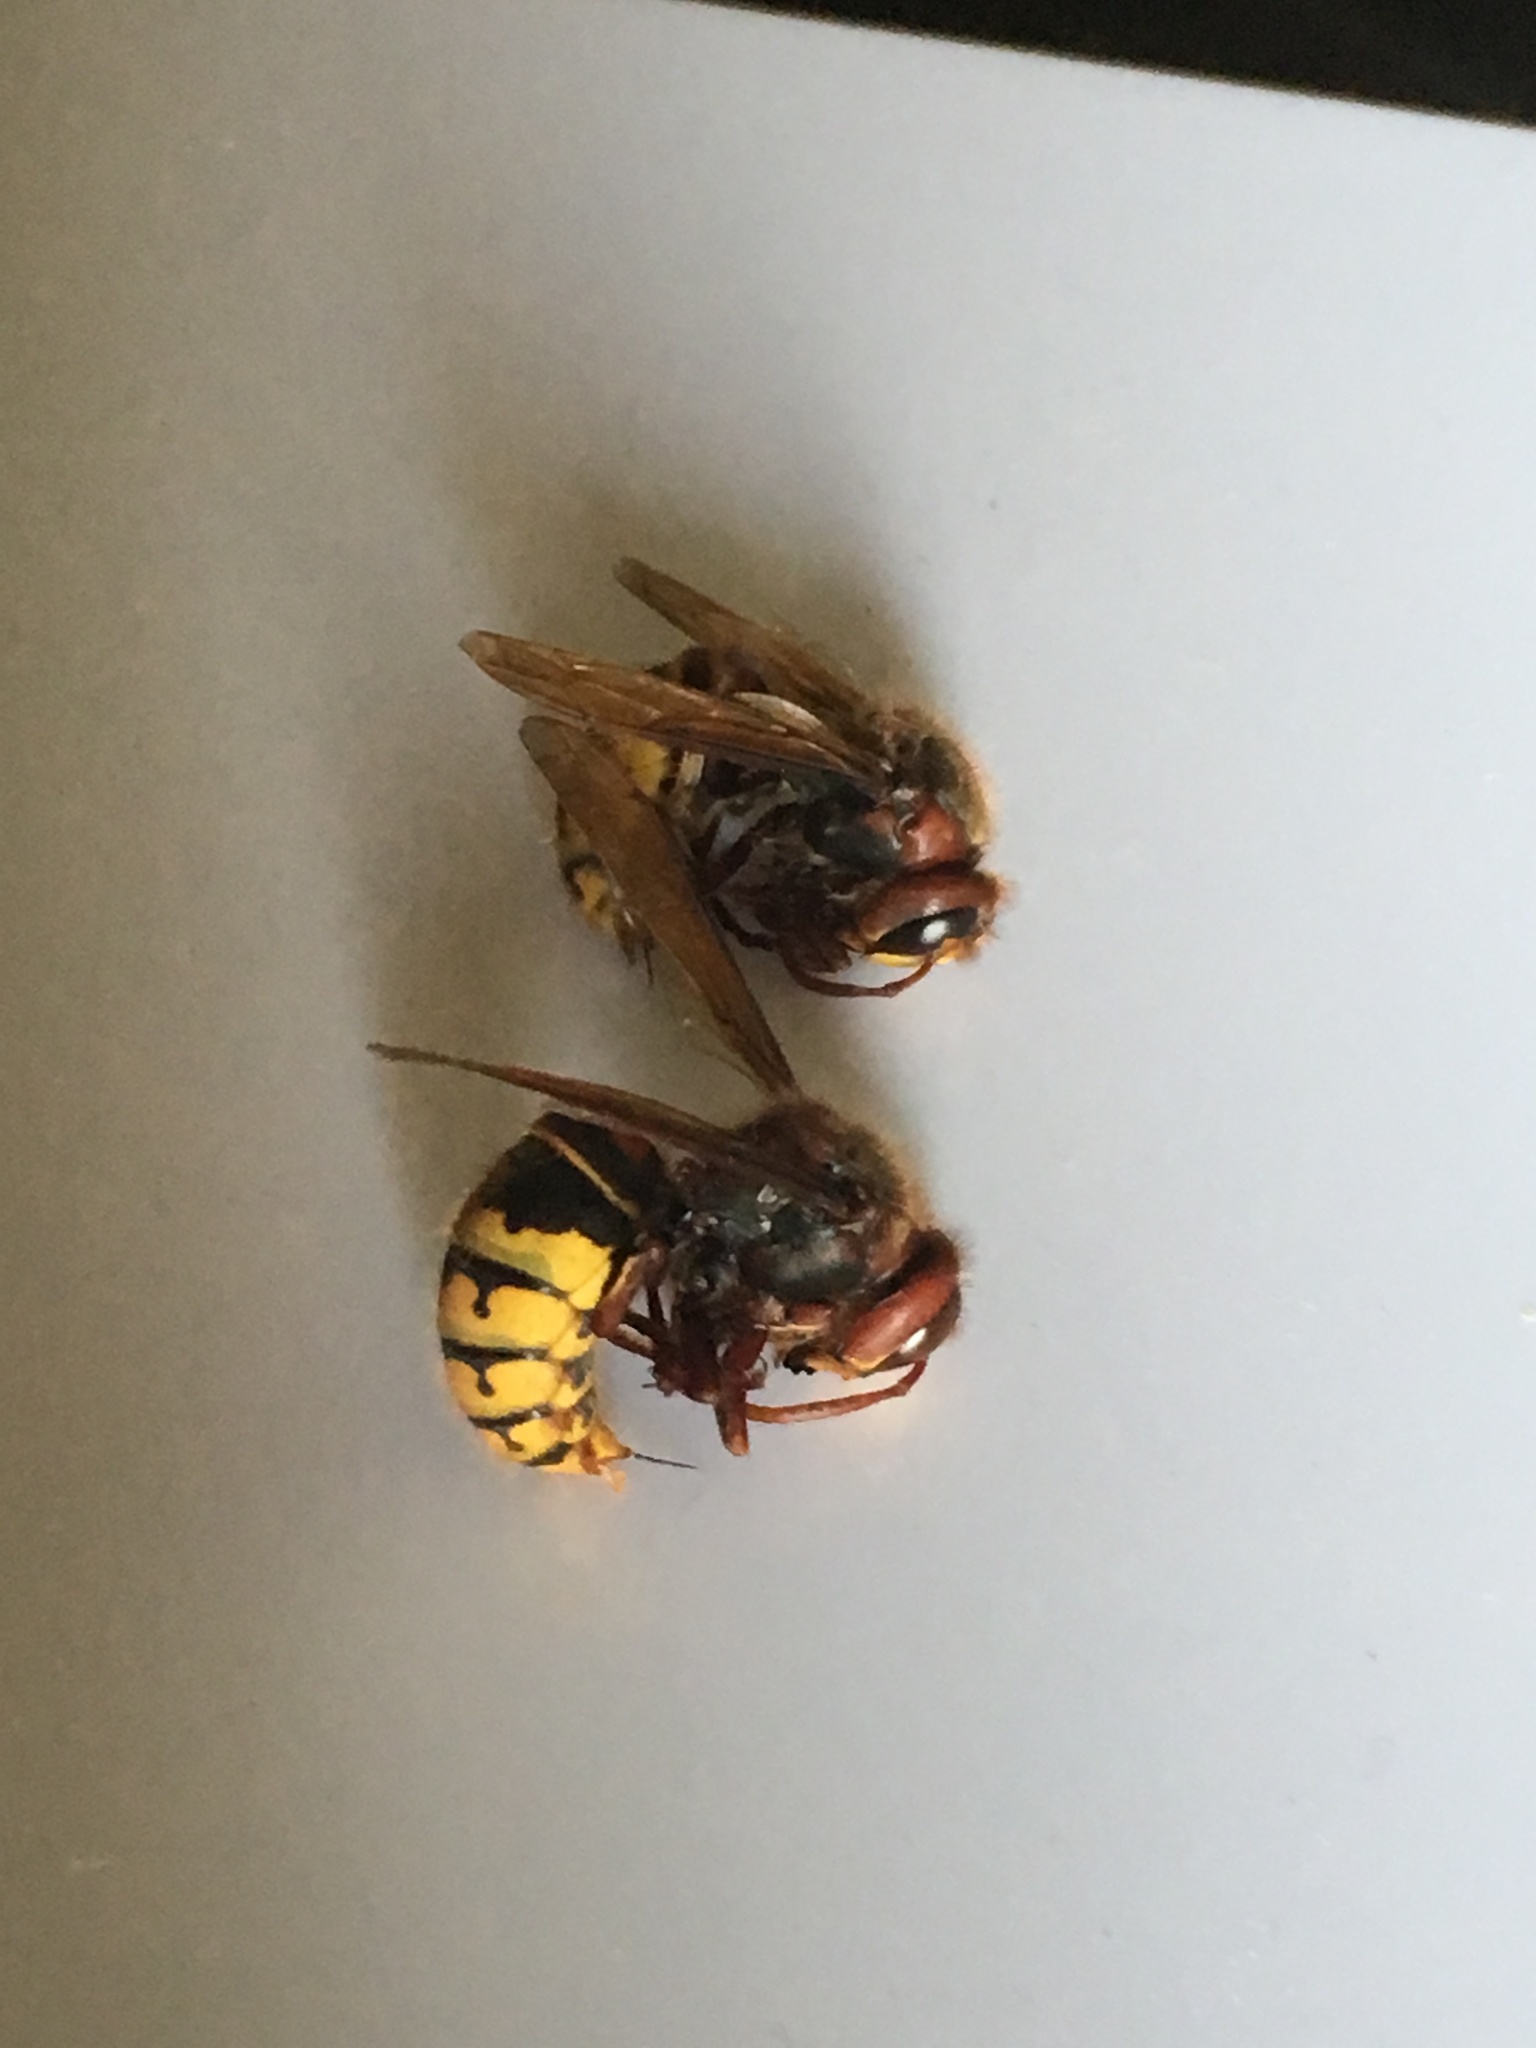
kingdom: Animalia
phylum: Arthropoda
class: Insecta
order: Hymenoptera
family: Vespidae
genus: Vespa
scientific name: Vespa crabro
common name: Hornet
